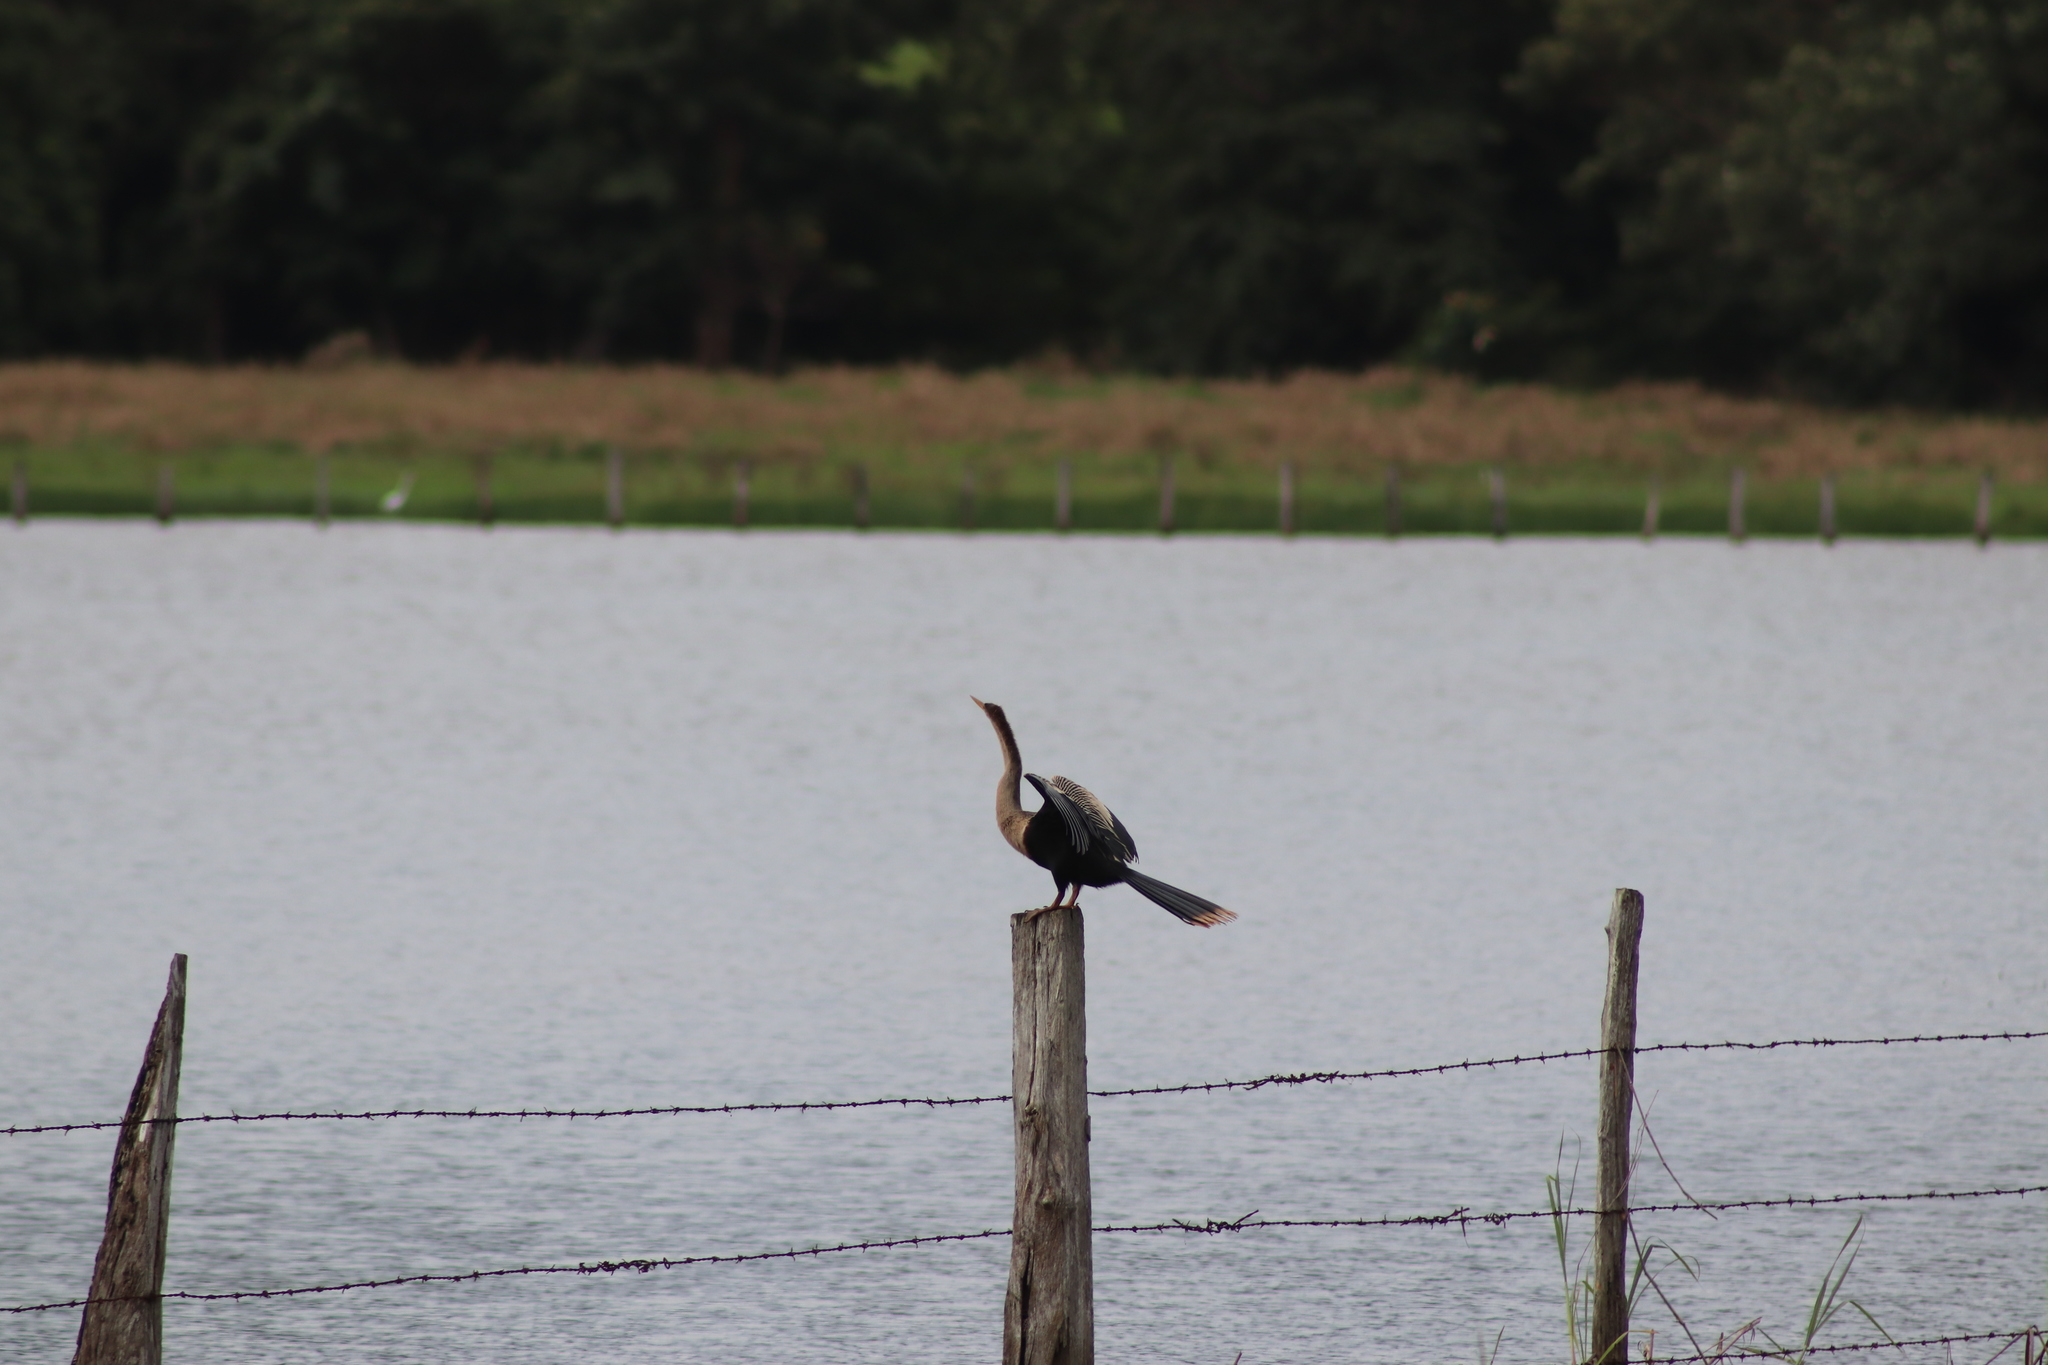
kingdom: Animalia
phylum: Chordata
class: Aves
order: Suliformes
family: Anhingidae
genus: Anhinga
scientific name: Anhinga anhinga
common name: Anhinga
